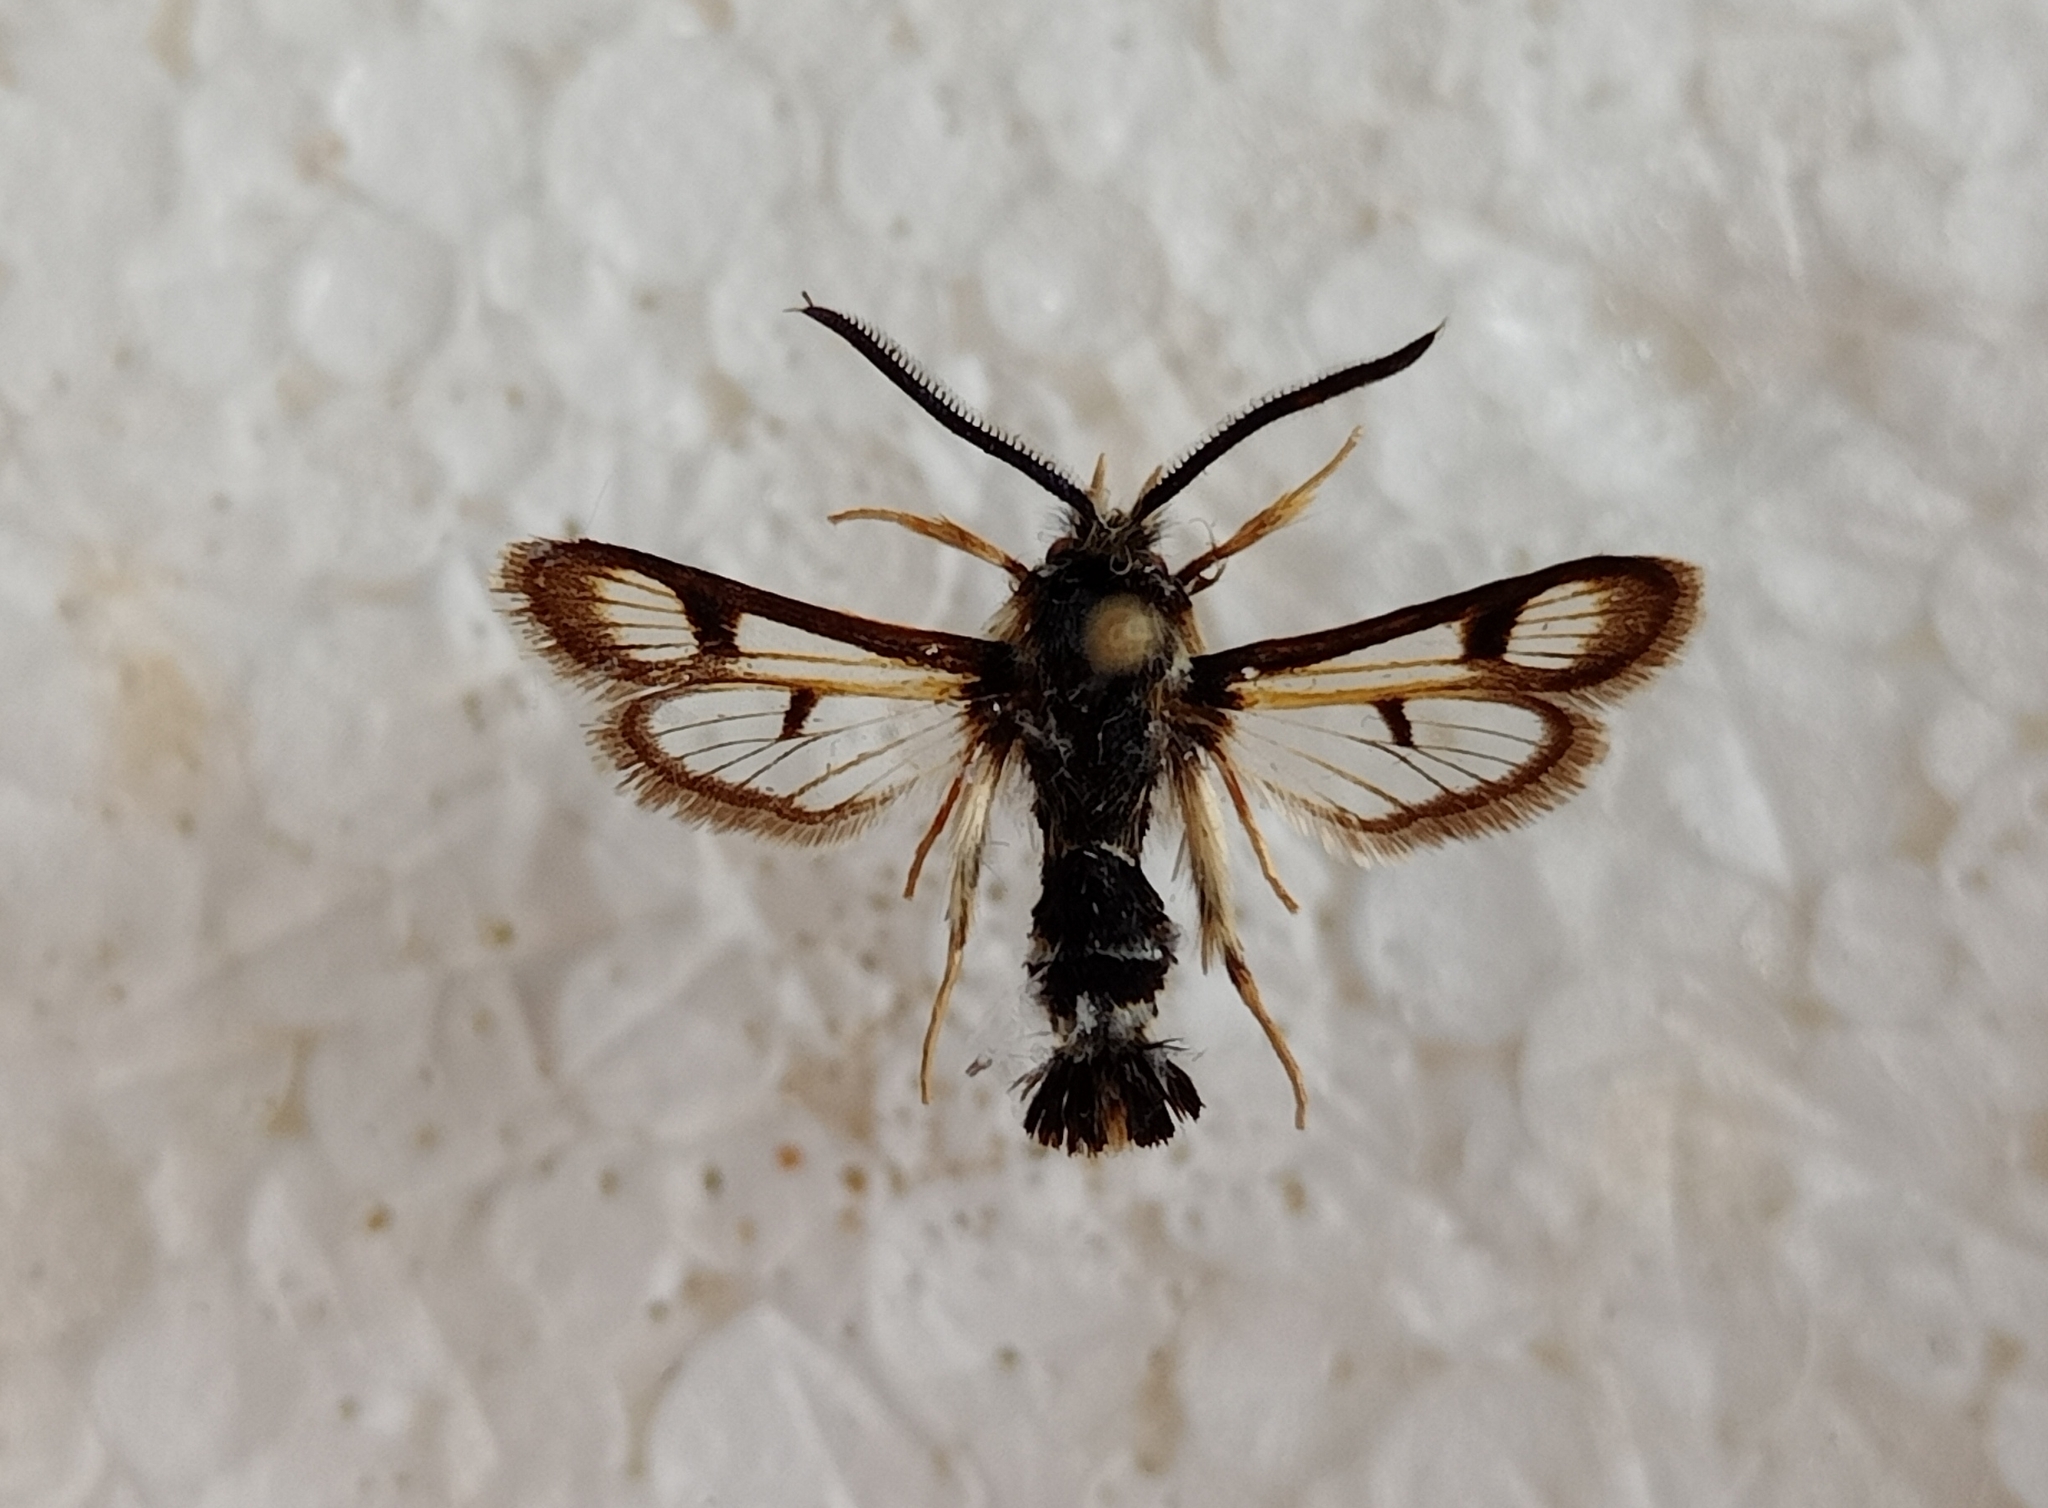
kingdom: Animalia
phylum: Arthropoda
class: Insecta
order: Lepidoptera
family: Sesiidae
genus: Euhagena
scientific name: Euhagena palariformis
